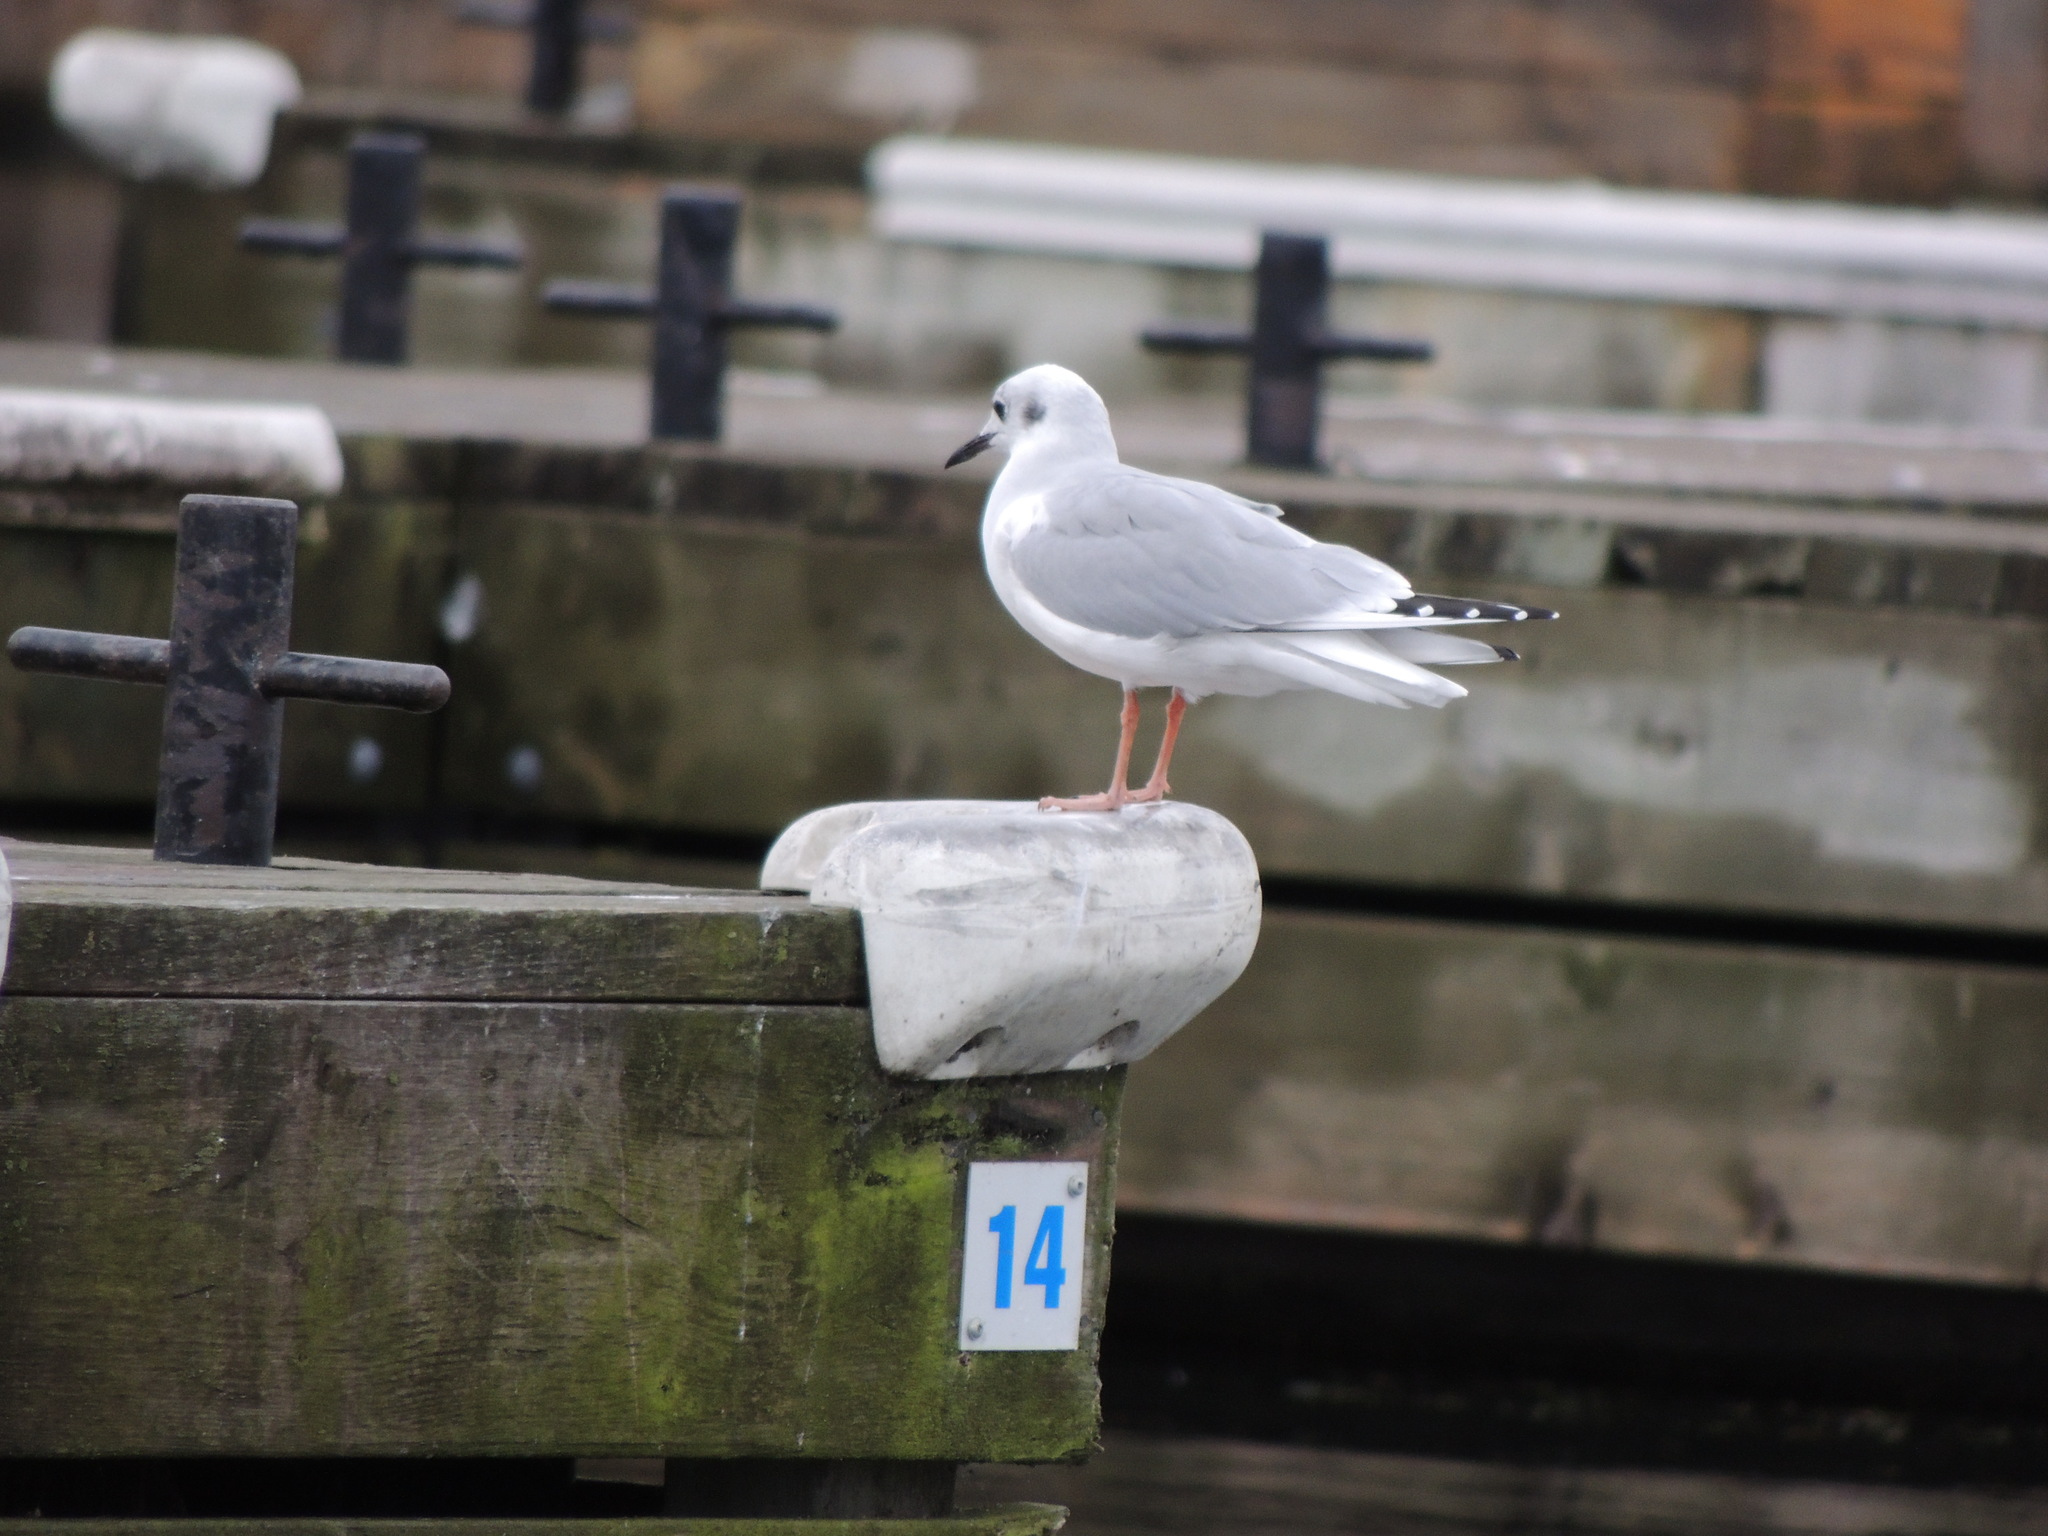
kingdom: Animalia
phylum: Chordata
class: Aves
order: Charadriiformes
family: Laridae
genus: Chroicocephalus
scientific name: Chroicocephalus philadelphia
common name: Bonaparte's gull
